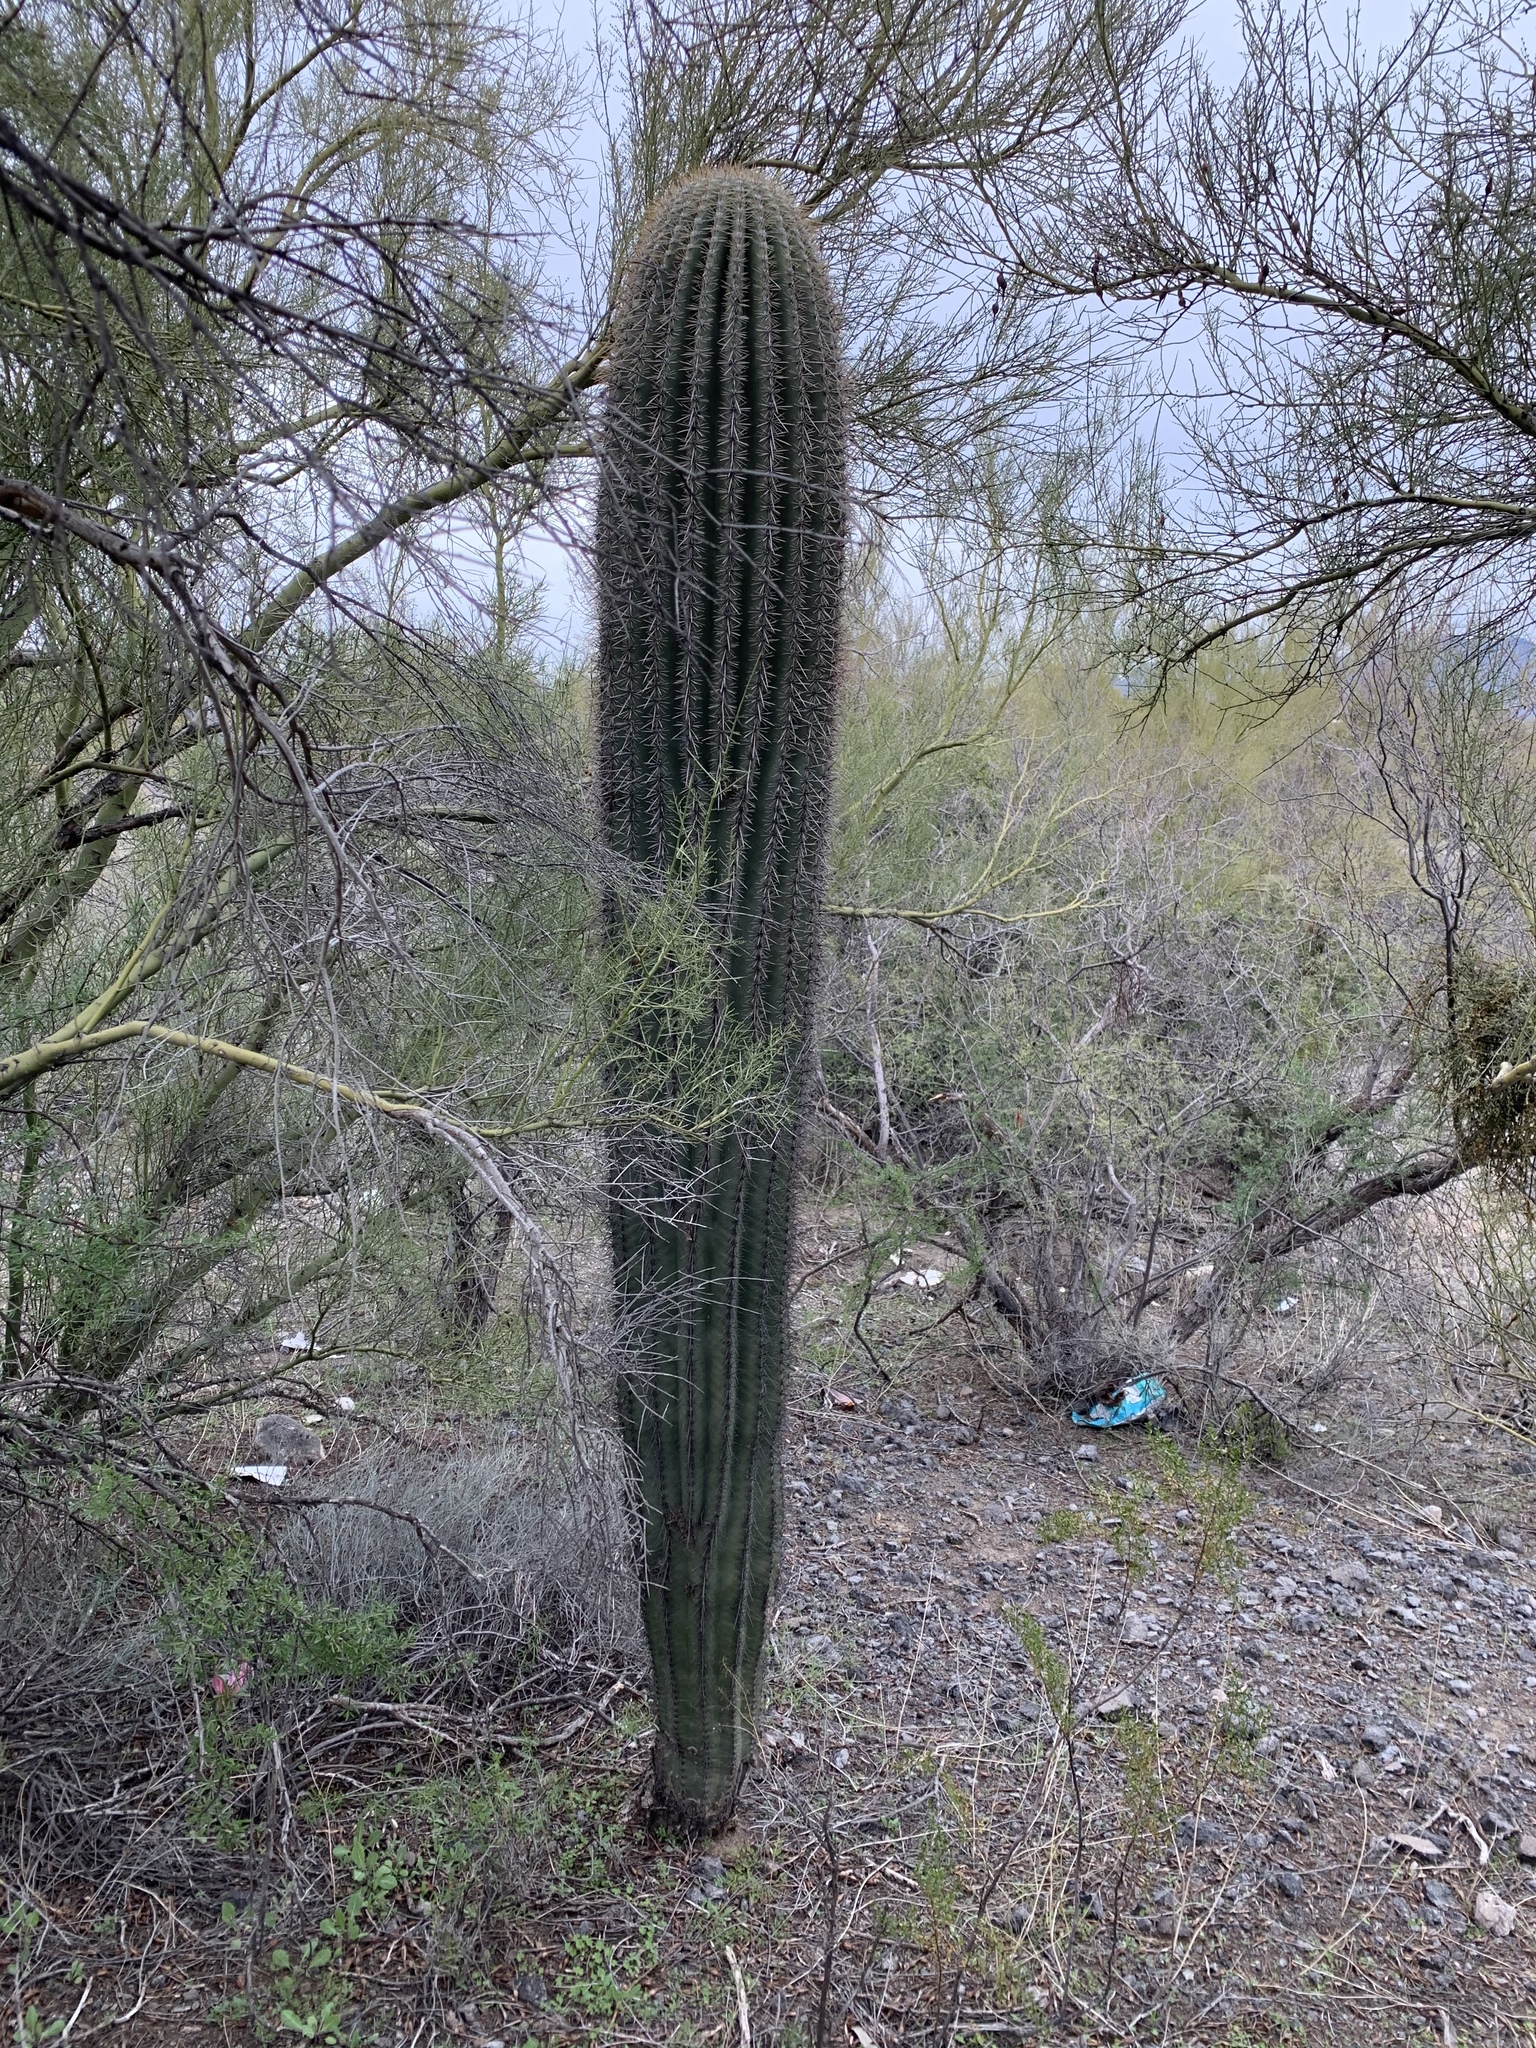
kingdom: Plantae
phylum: Tracheophyta
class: Magnoliopsida
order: Caryophyllales
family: Cactaceae
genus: Carnegiea
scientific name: Carnegiea gigantea
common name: Saguaro
